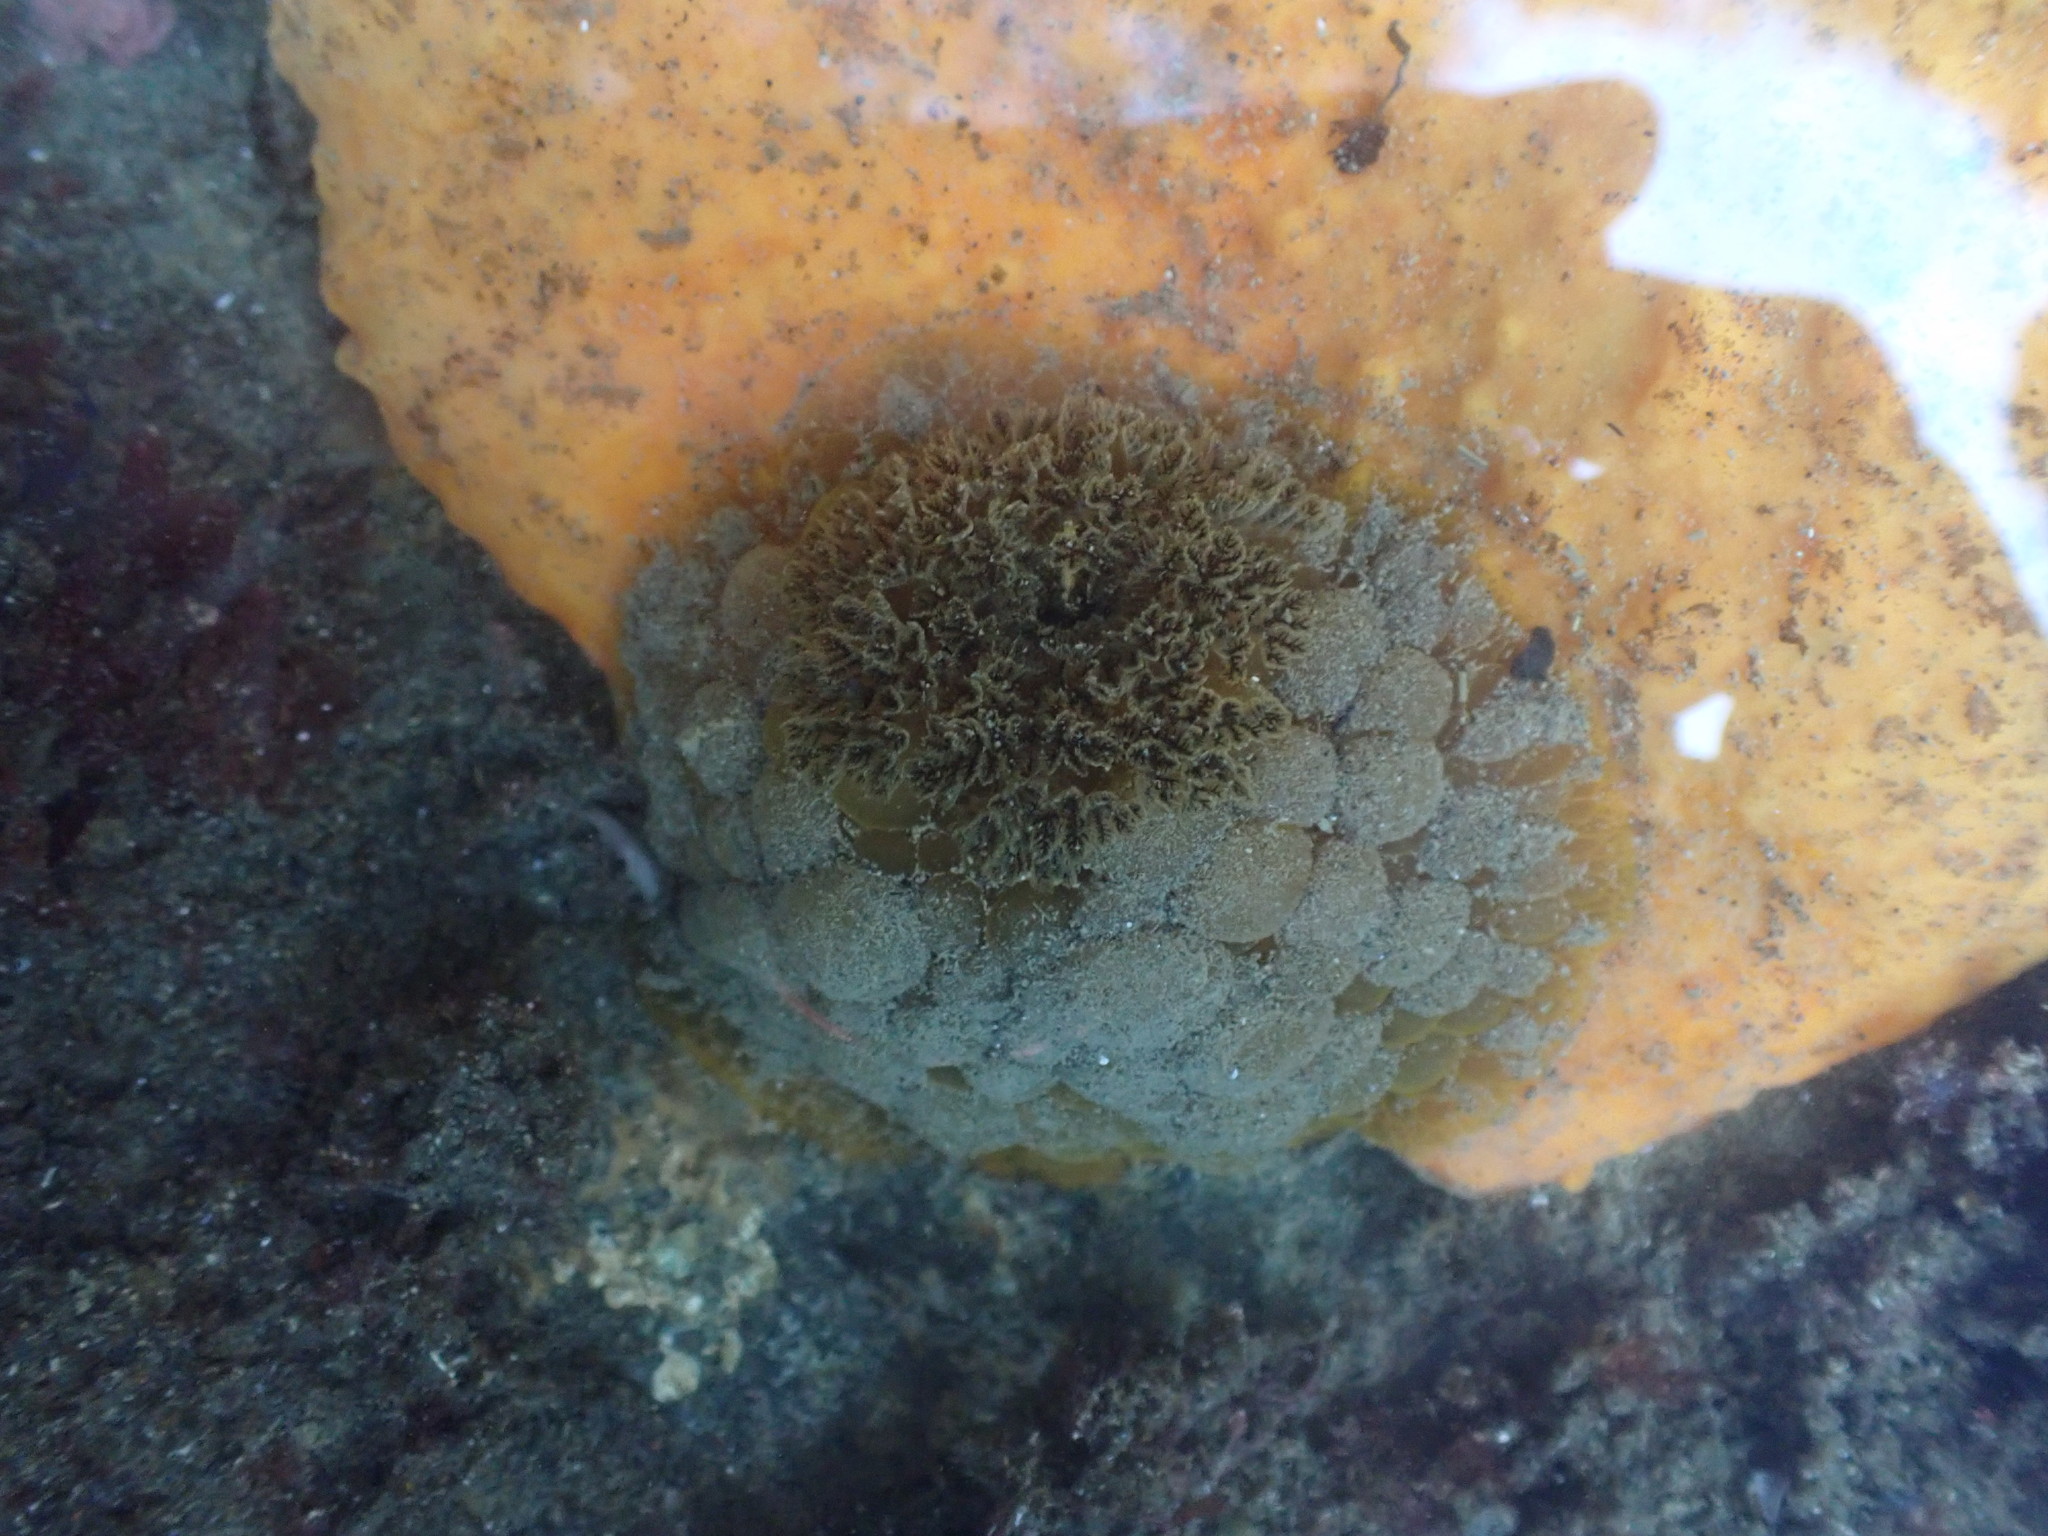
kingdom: Animalia
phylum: Mollusca
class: Gastropoda
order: Nudibranchia
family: Dorididae
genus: Doris
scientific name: Doris wellingtonensis
